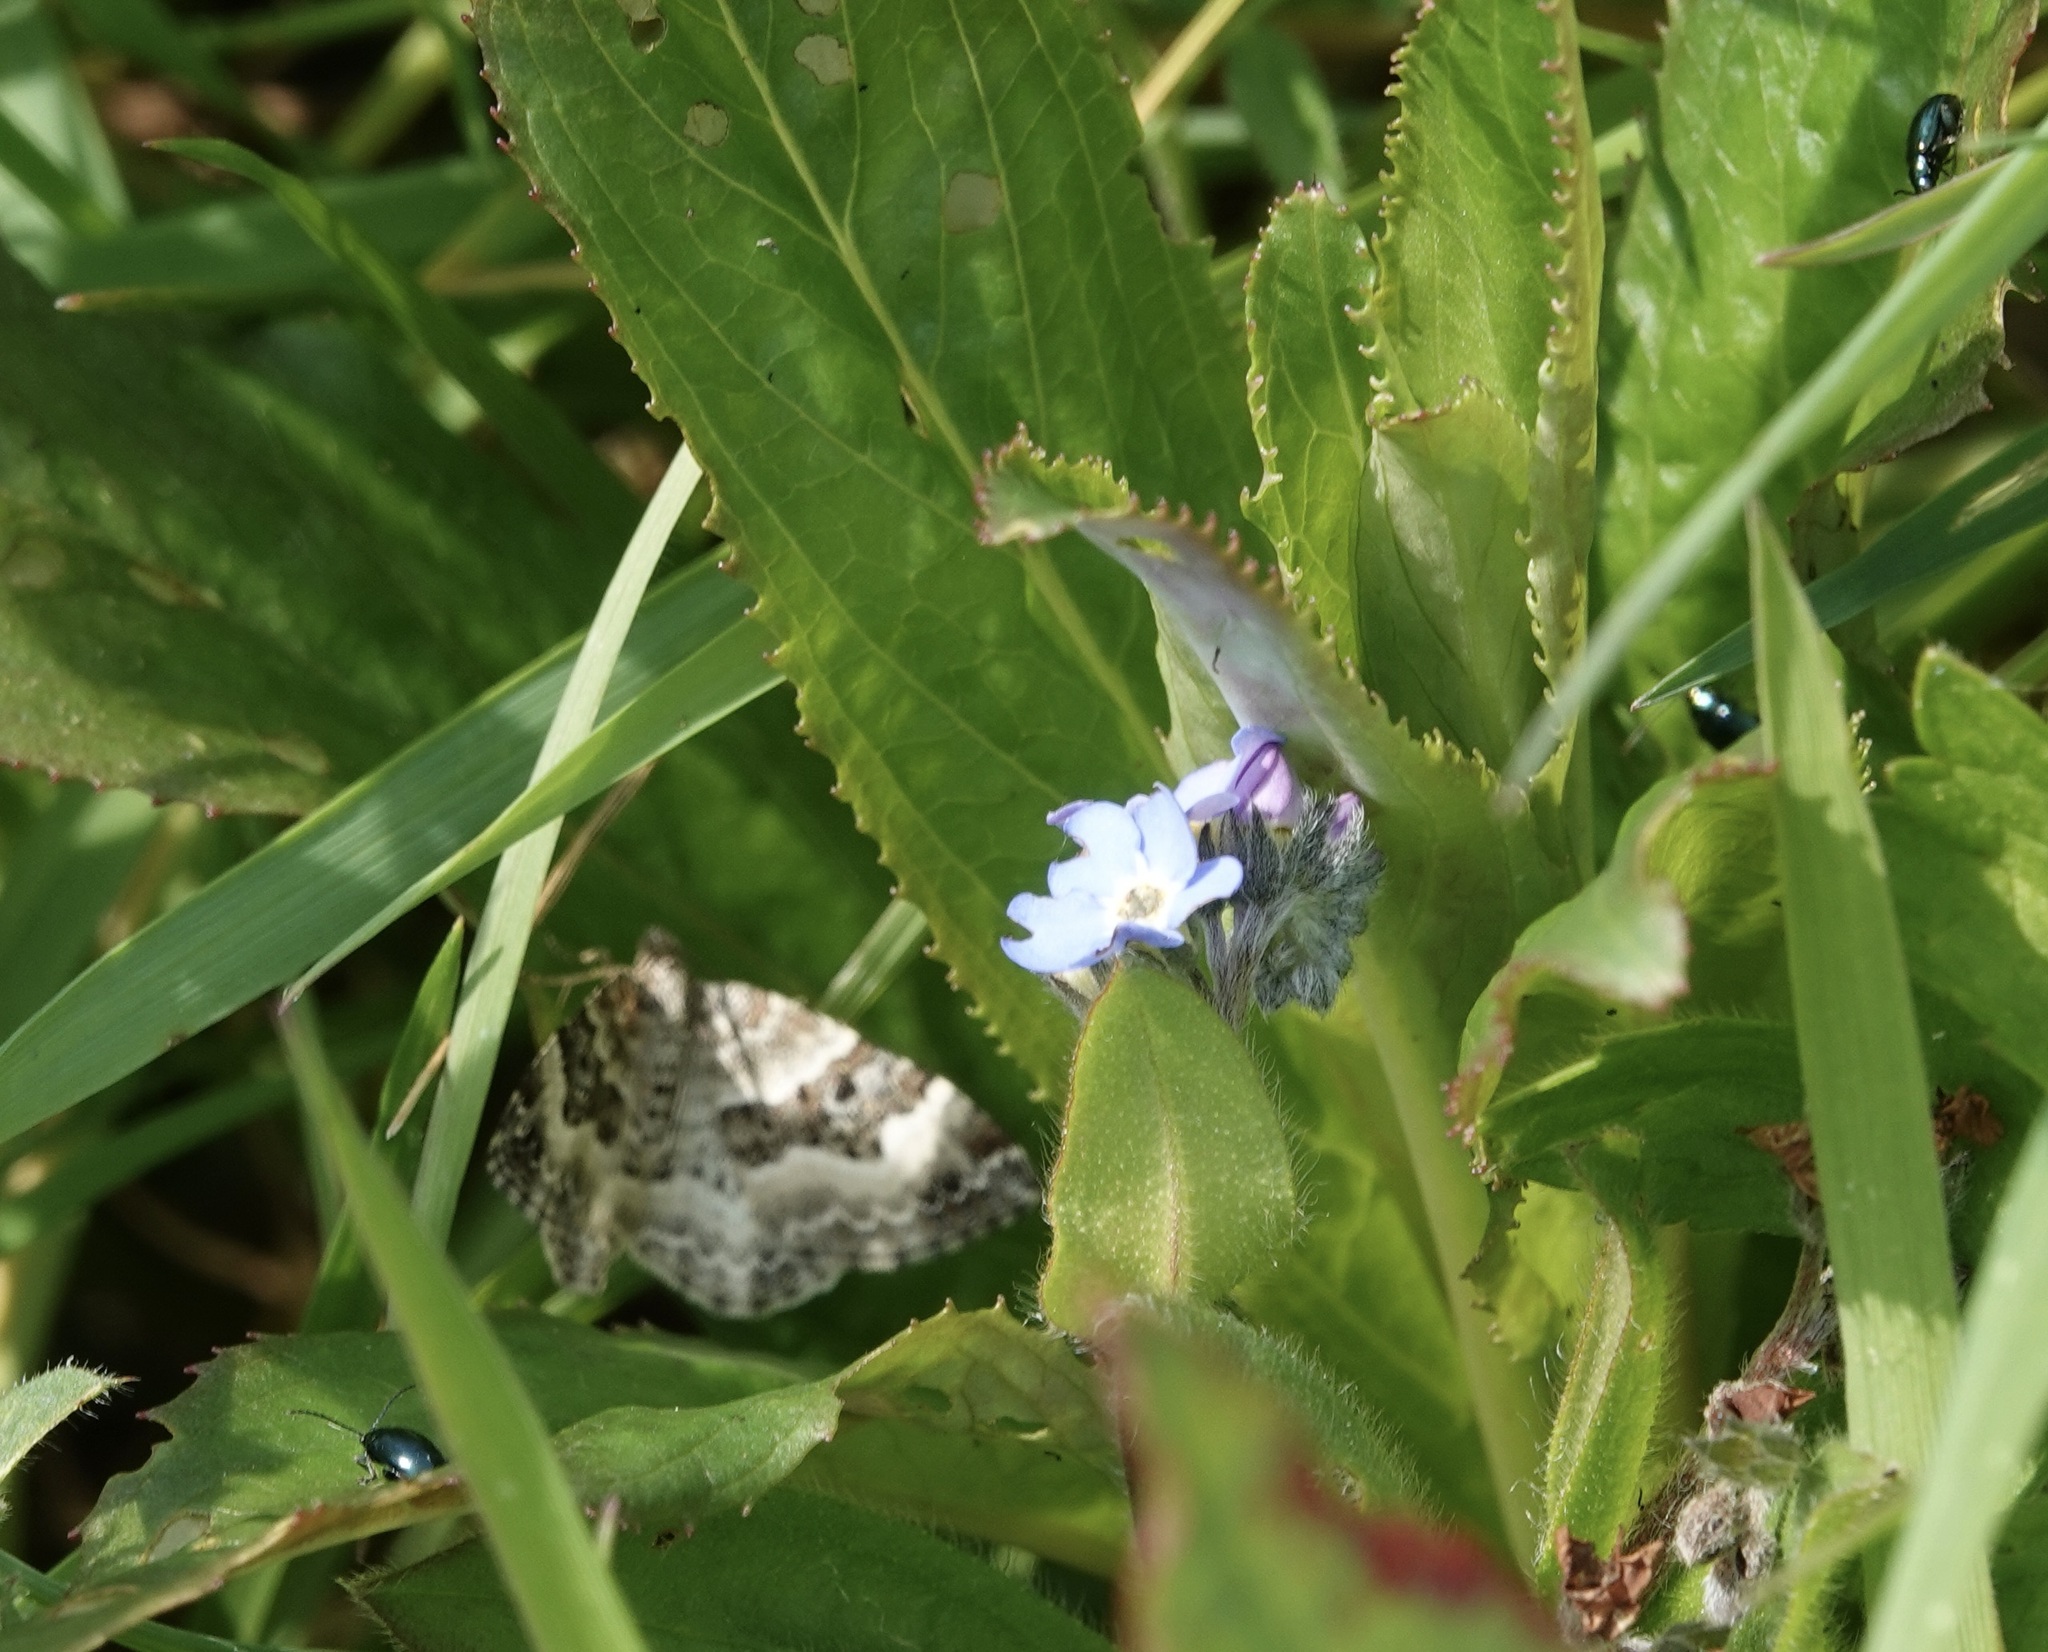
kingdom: Animalia
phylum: Arthropoda
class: Insecta
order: Lepidoptera
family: Geometridae
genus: Epirrhoe
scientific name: Epirrhoe alternata
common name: Common carpet
